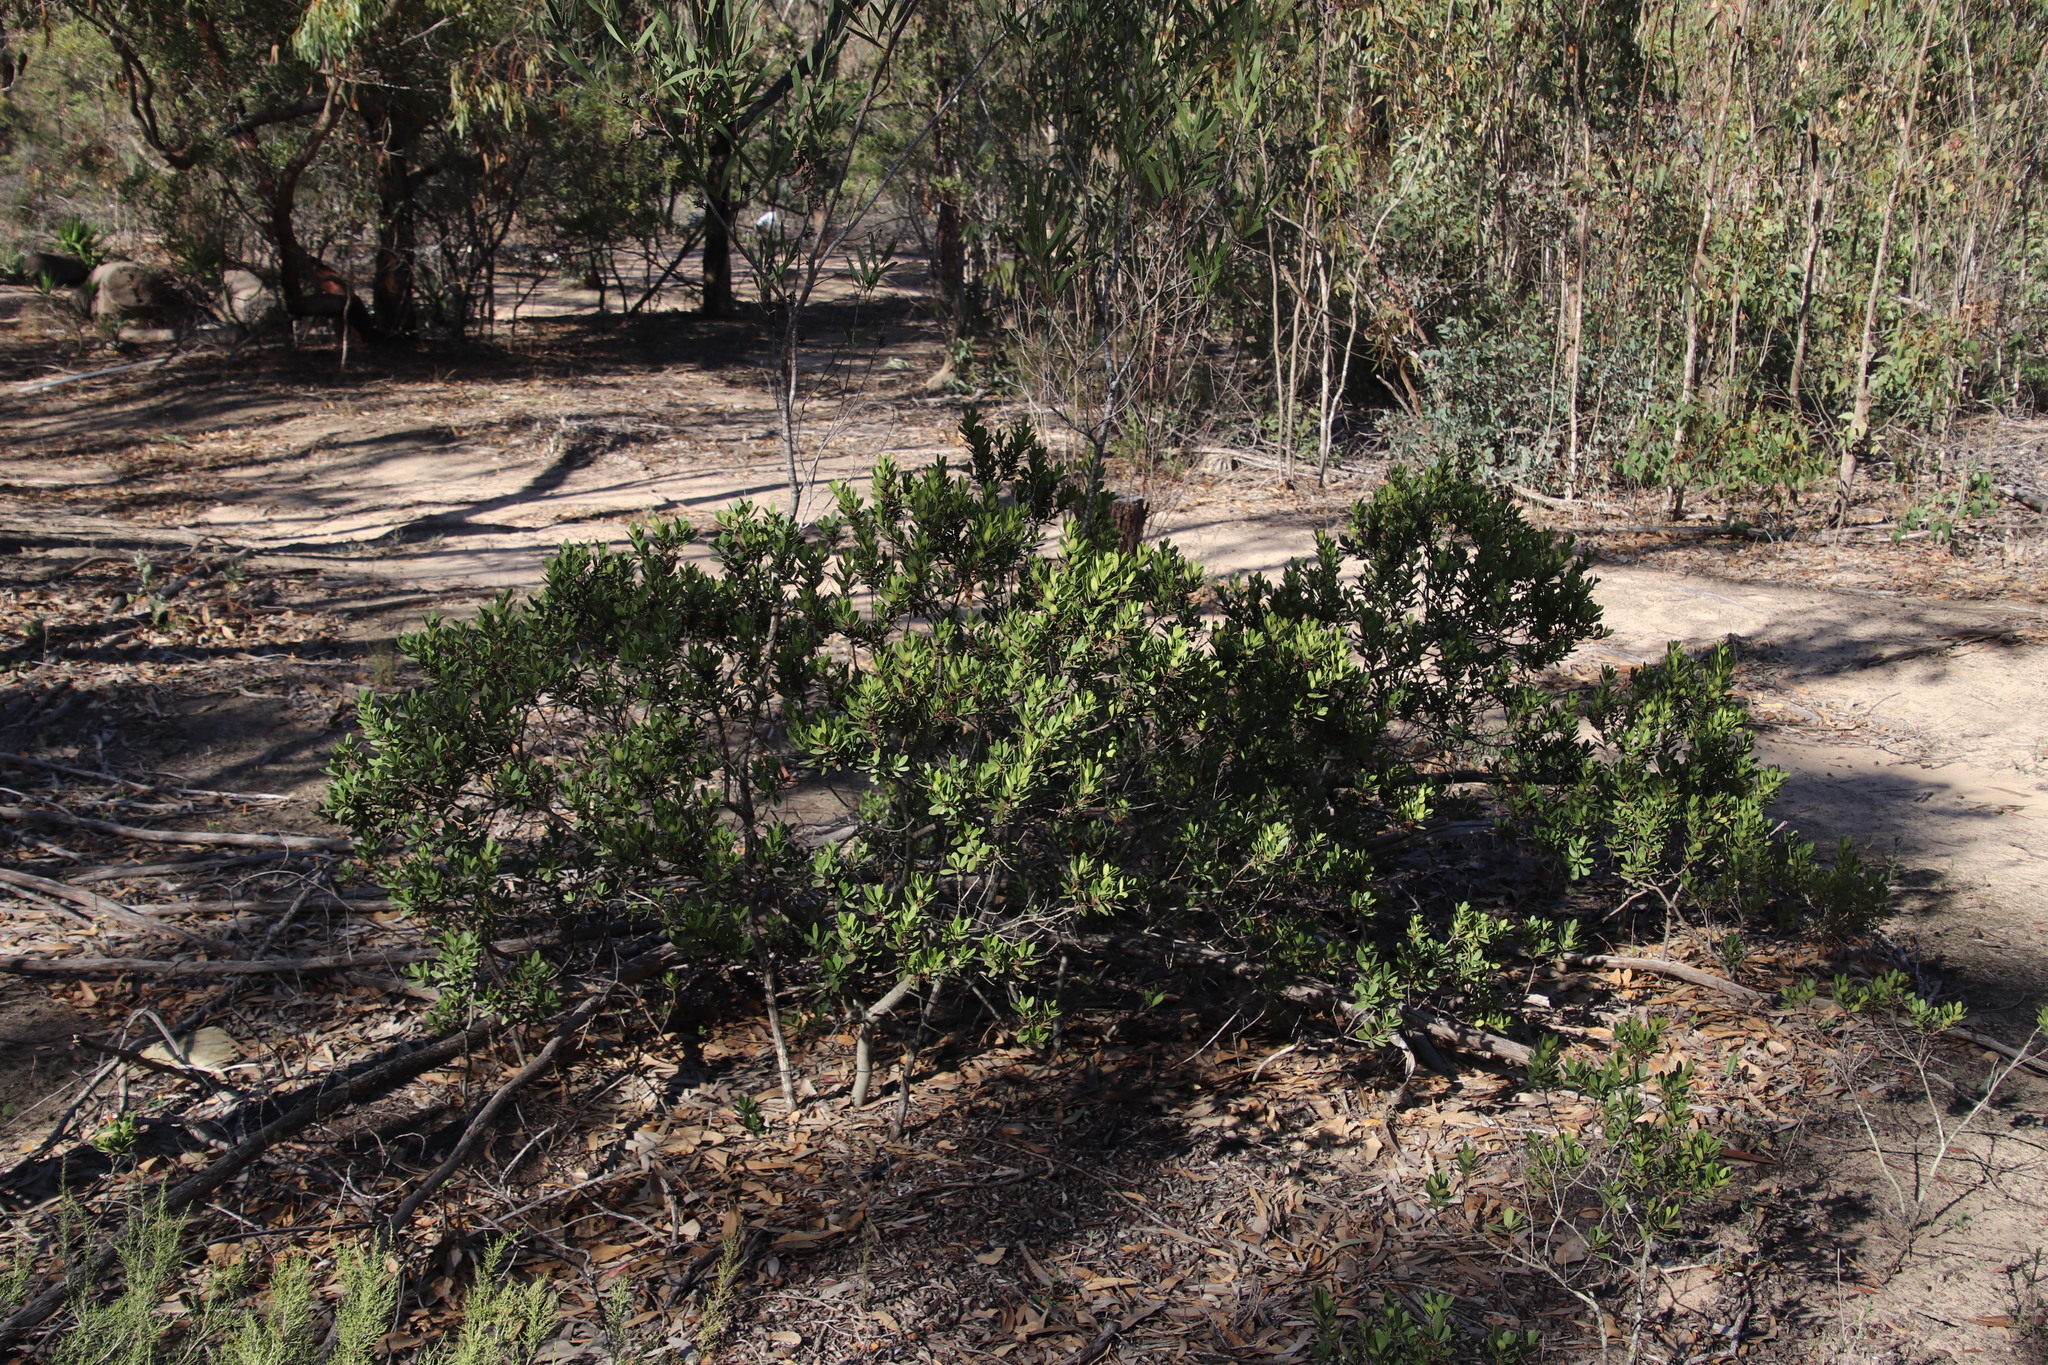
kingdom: Plantae
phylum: Tracheophyta
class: Magnoliopsida
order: Ericales
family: Ebenaceae
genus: Euclea
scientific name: Euclea racemosa
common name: Dune guarri
